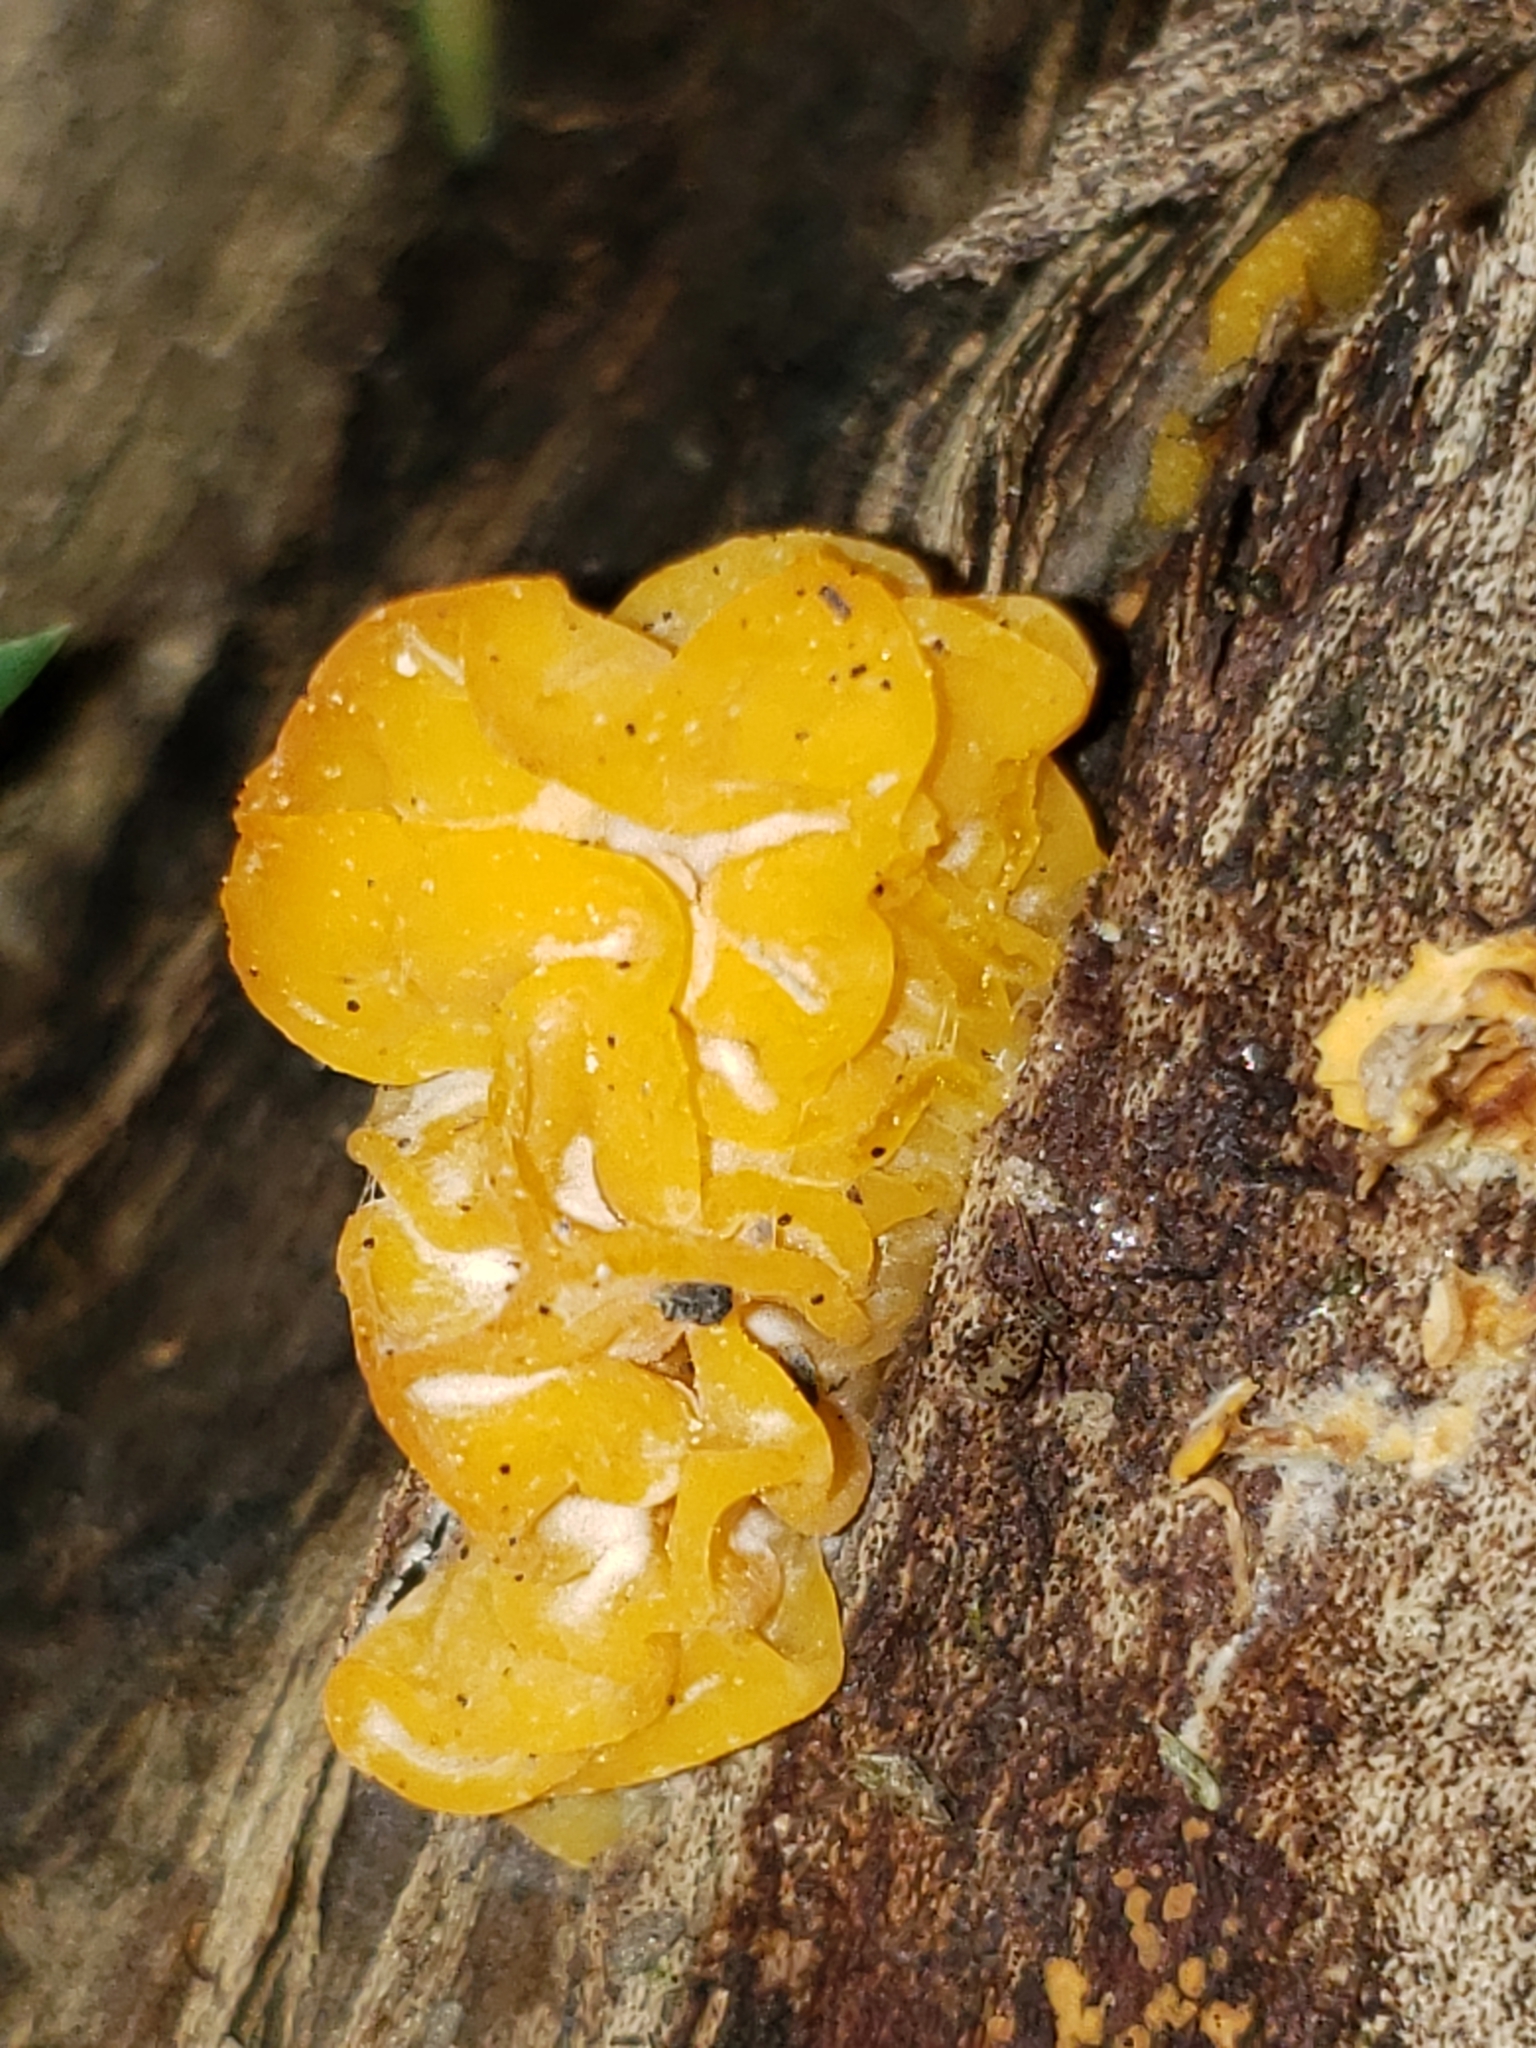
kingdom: Fungi
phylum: Basidiomycota
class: Tremellomycetes
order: Tremellales
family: Tremellaceae
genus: Tremella
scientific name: Tremella mesenterica
